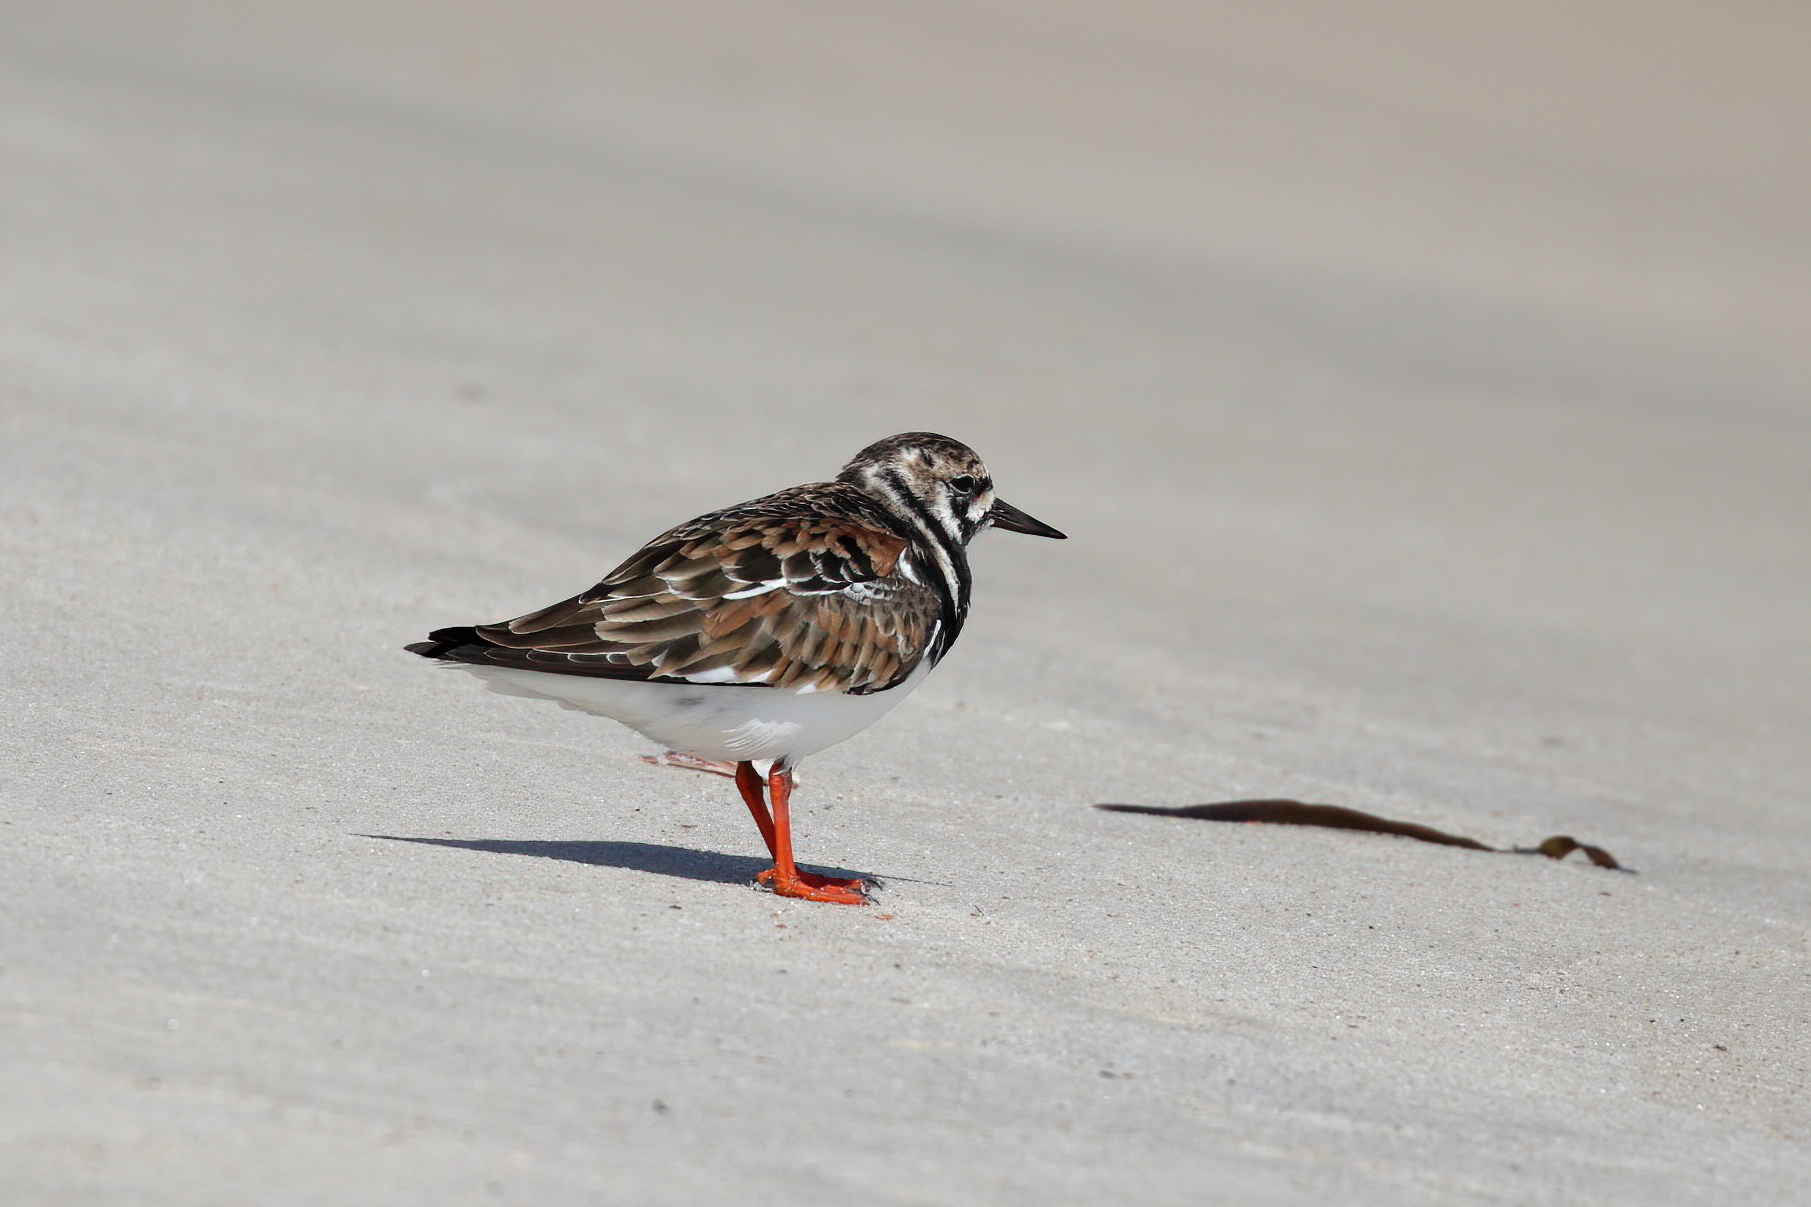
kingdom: Animalia
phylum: Chordata
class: Aves
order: Charadriiformes
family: Scolopacidae
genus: Arenaria
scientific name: Arenaria interpres
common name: Ruddy turnstone
